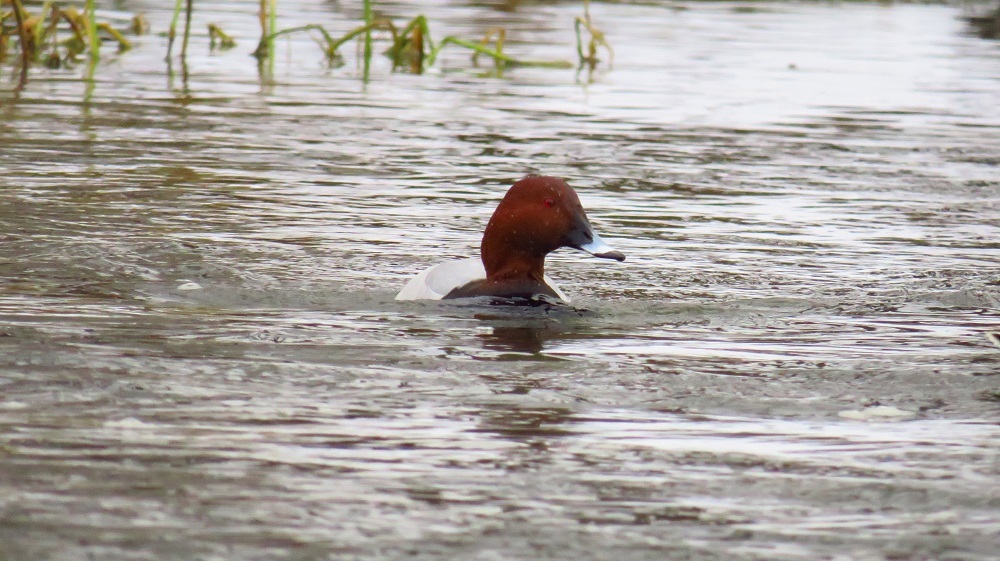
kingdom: Animalia
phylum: Chordata
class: Aves
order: Anseriformes
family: Anatidae
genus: Aythya
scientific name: Aythya ferina
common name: Common pochard
